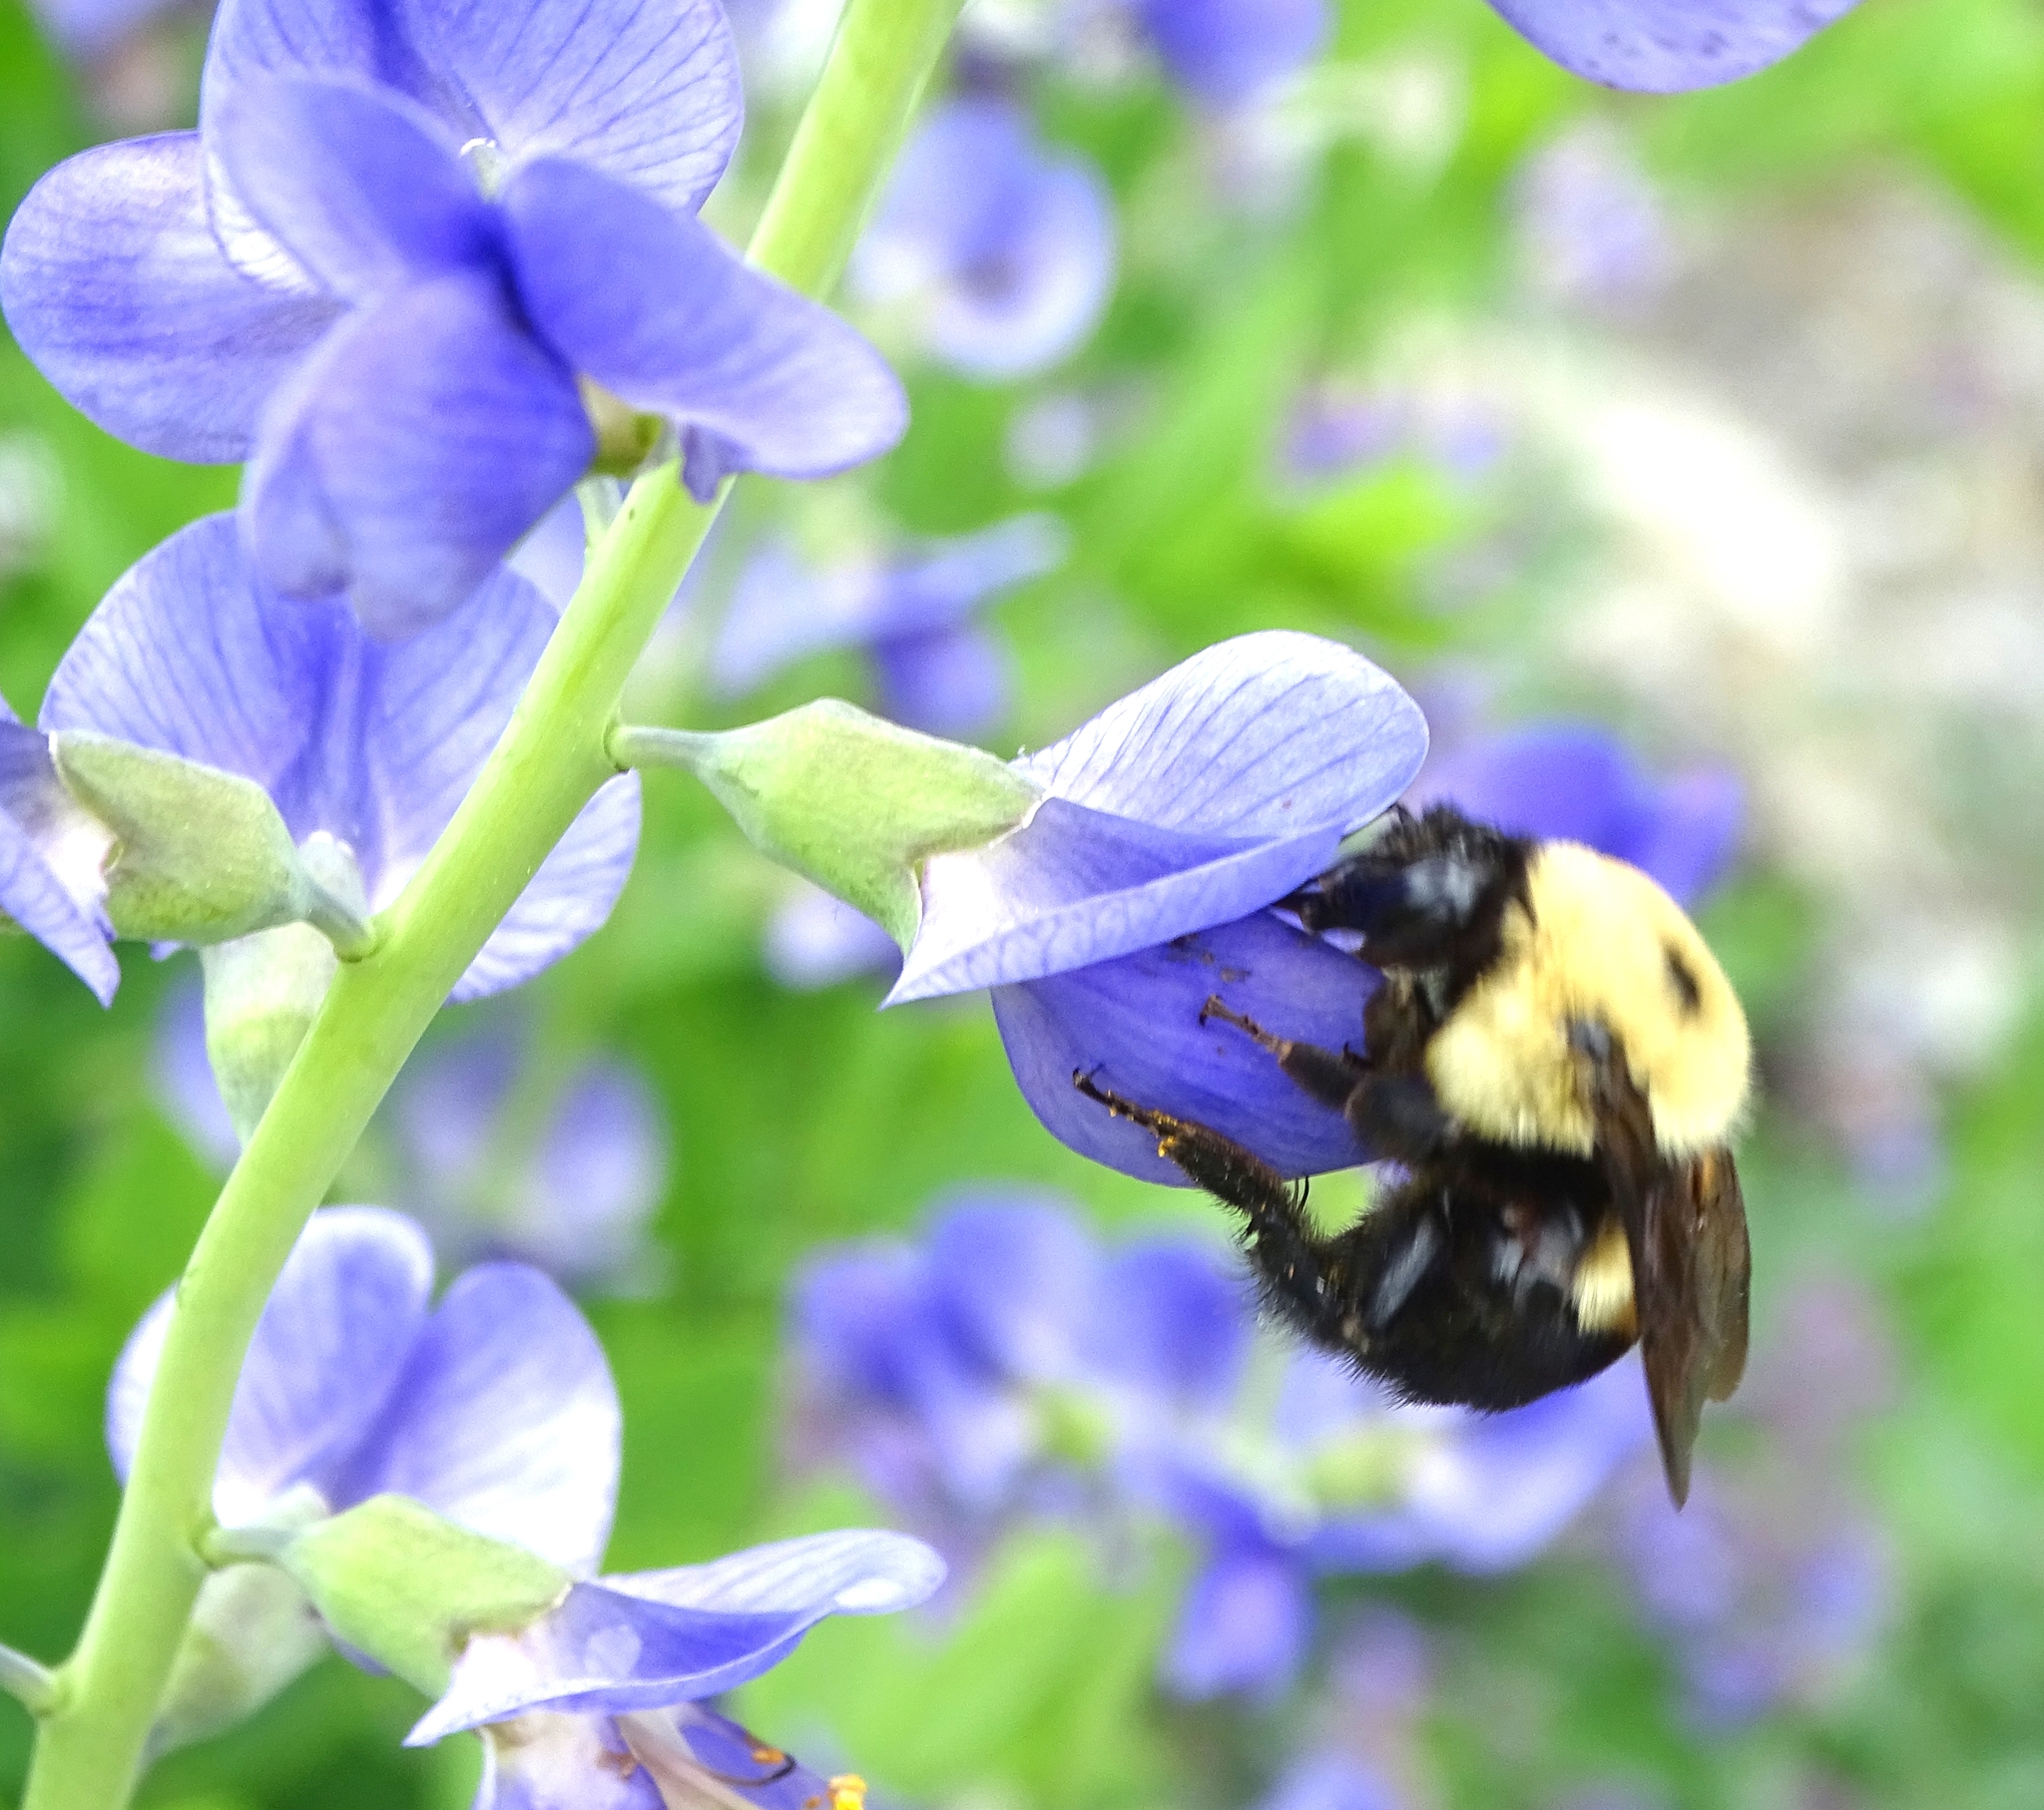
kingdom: Animalia
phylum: Arthropoda
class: Insecta
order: Hymenoptera
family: Apidae
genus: Bombus
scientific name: Bombus griseocollis
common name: Brown-belted bumble bee
